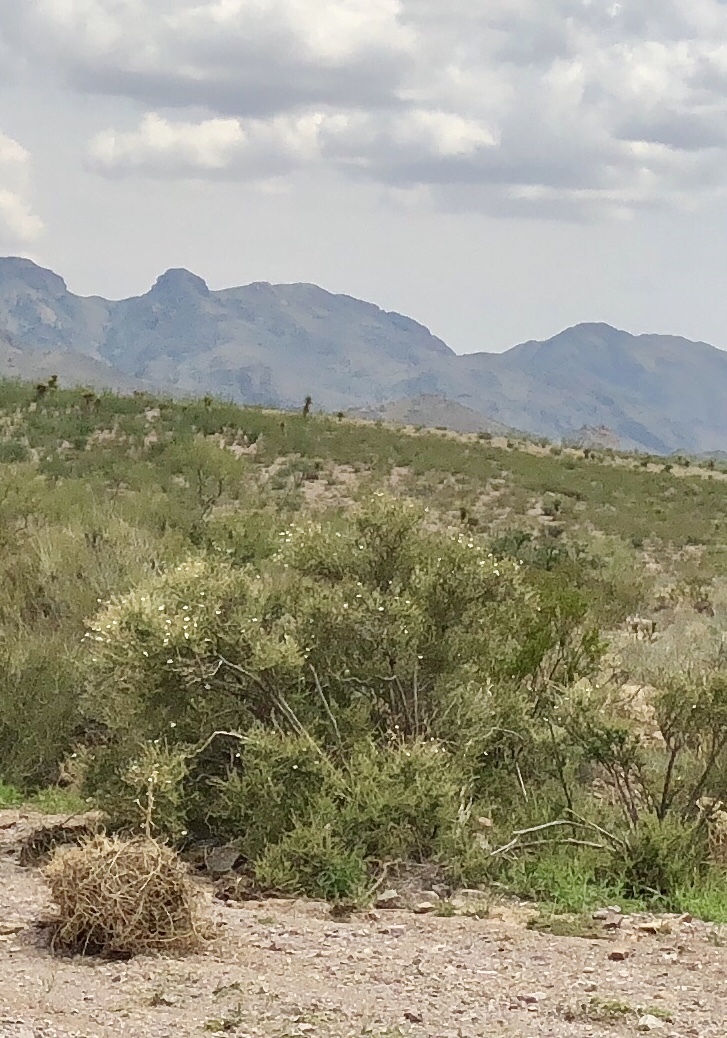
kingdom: Plantae
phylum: Tracheophyta
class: Magnoliopsida
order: Rosales
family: Rosaceae
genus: Fallugia
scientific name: Fallugia paradoxa
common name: Apache-plume
